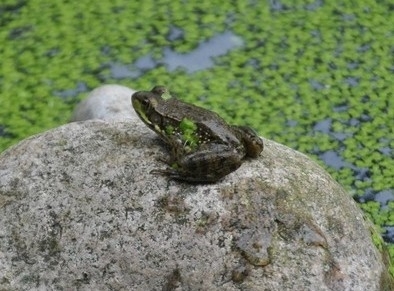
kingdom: Animalia
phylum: Chordata
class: Amphibia
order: Anura
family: Ranidae
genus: Lithobates
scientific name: Lithobates clamitans
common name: Green frog
